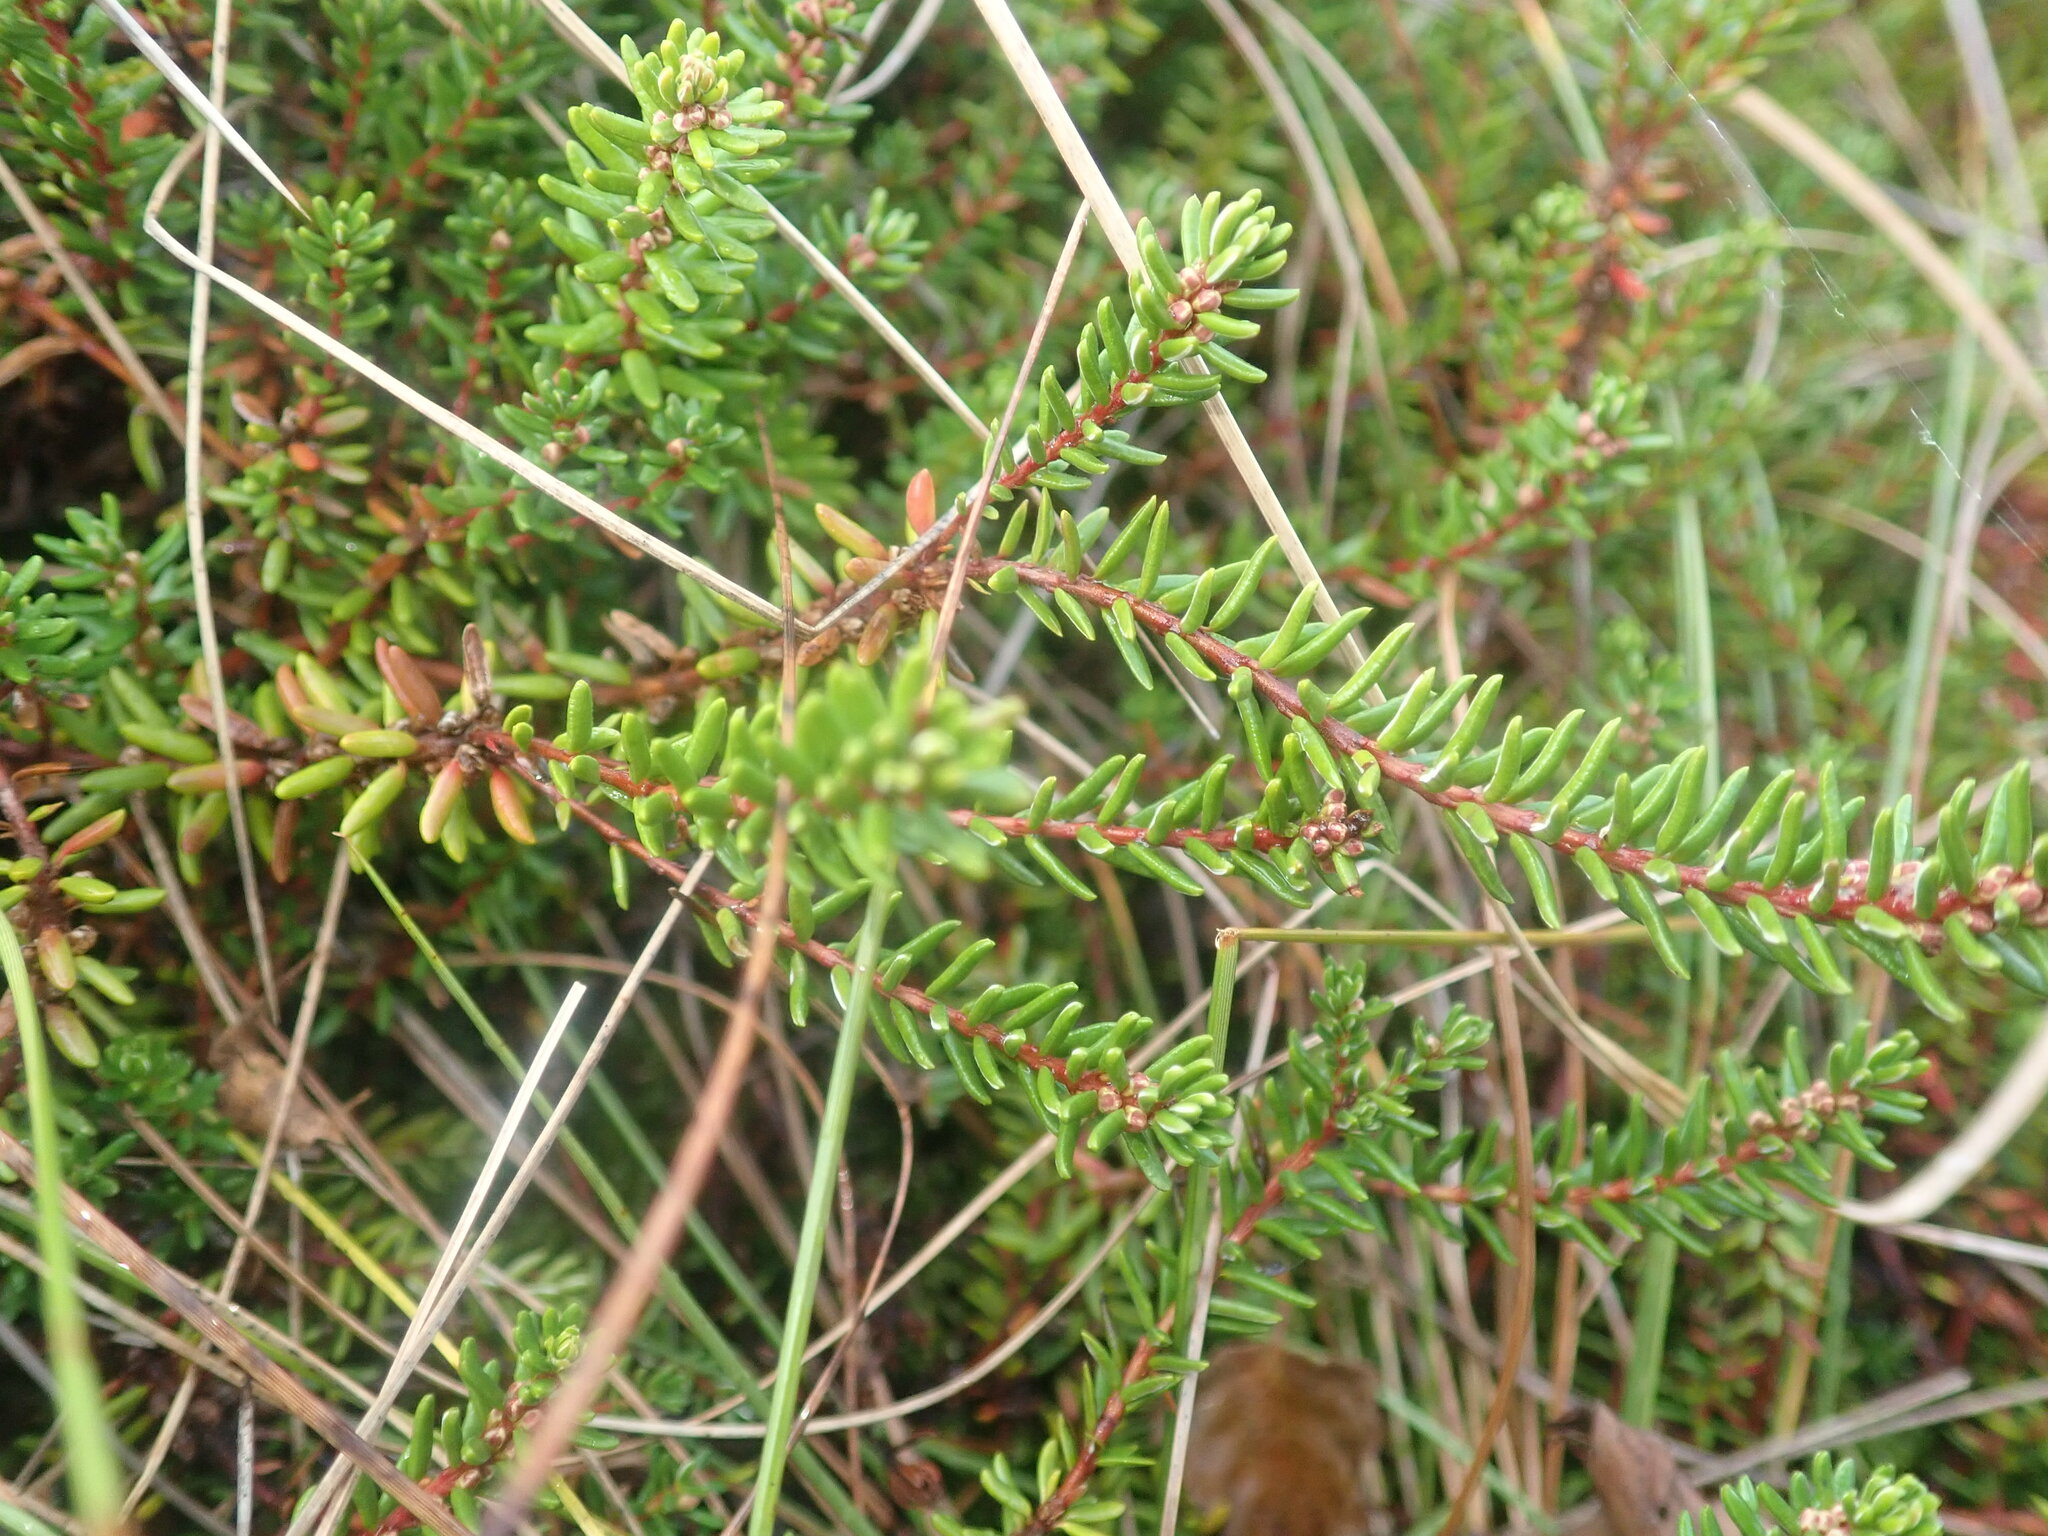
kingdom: Plantae
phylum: Tracheophyta
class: Magnoliopsida
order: Ericales
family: Ericaceae
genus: Empetrum
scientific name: Empetrum nigrum
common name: Black crowberry
